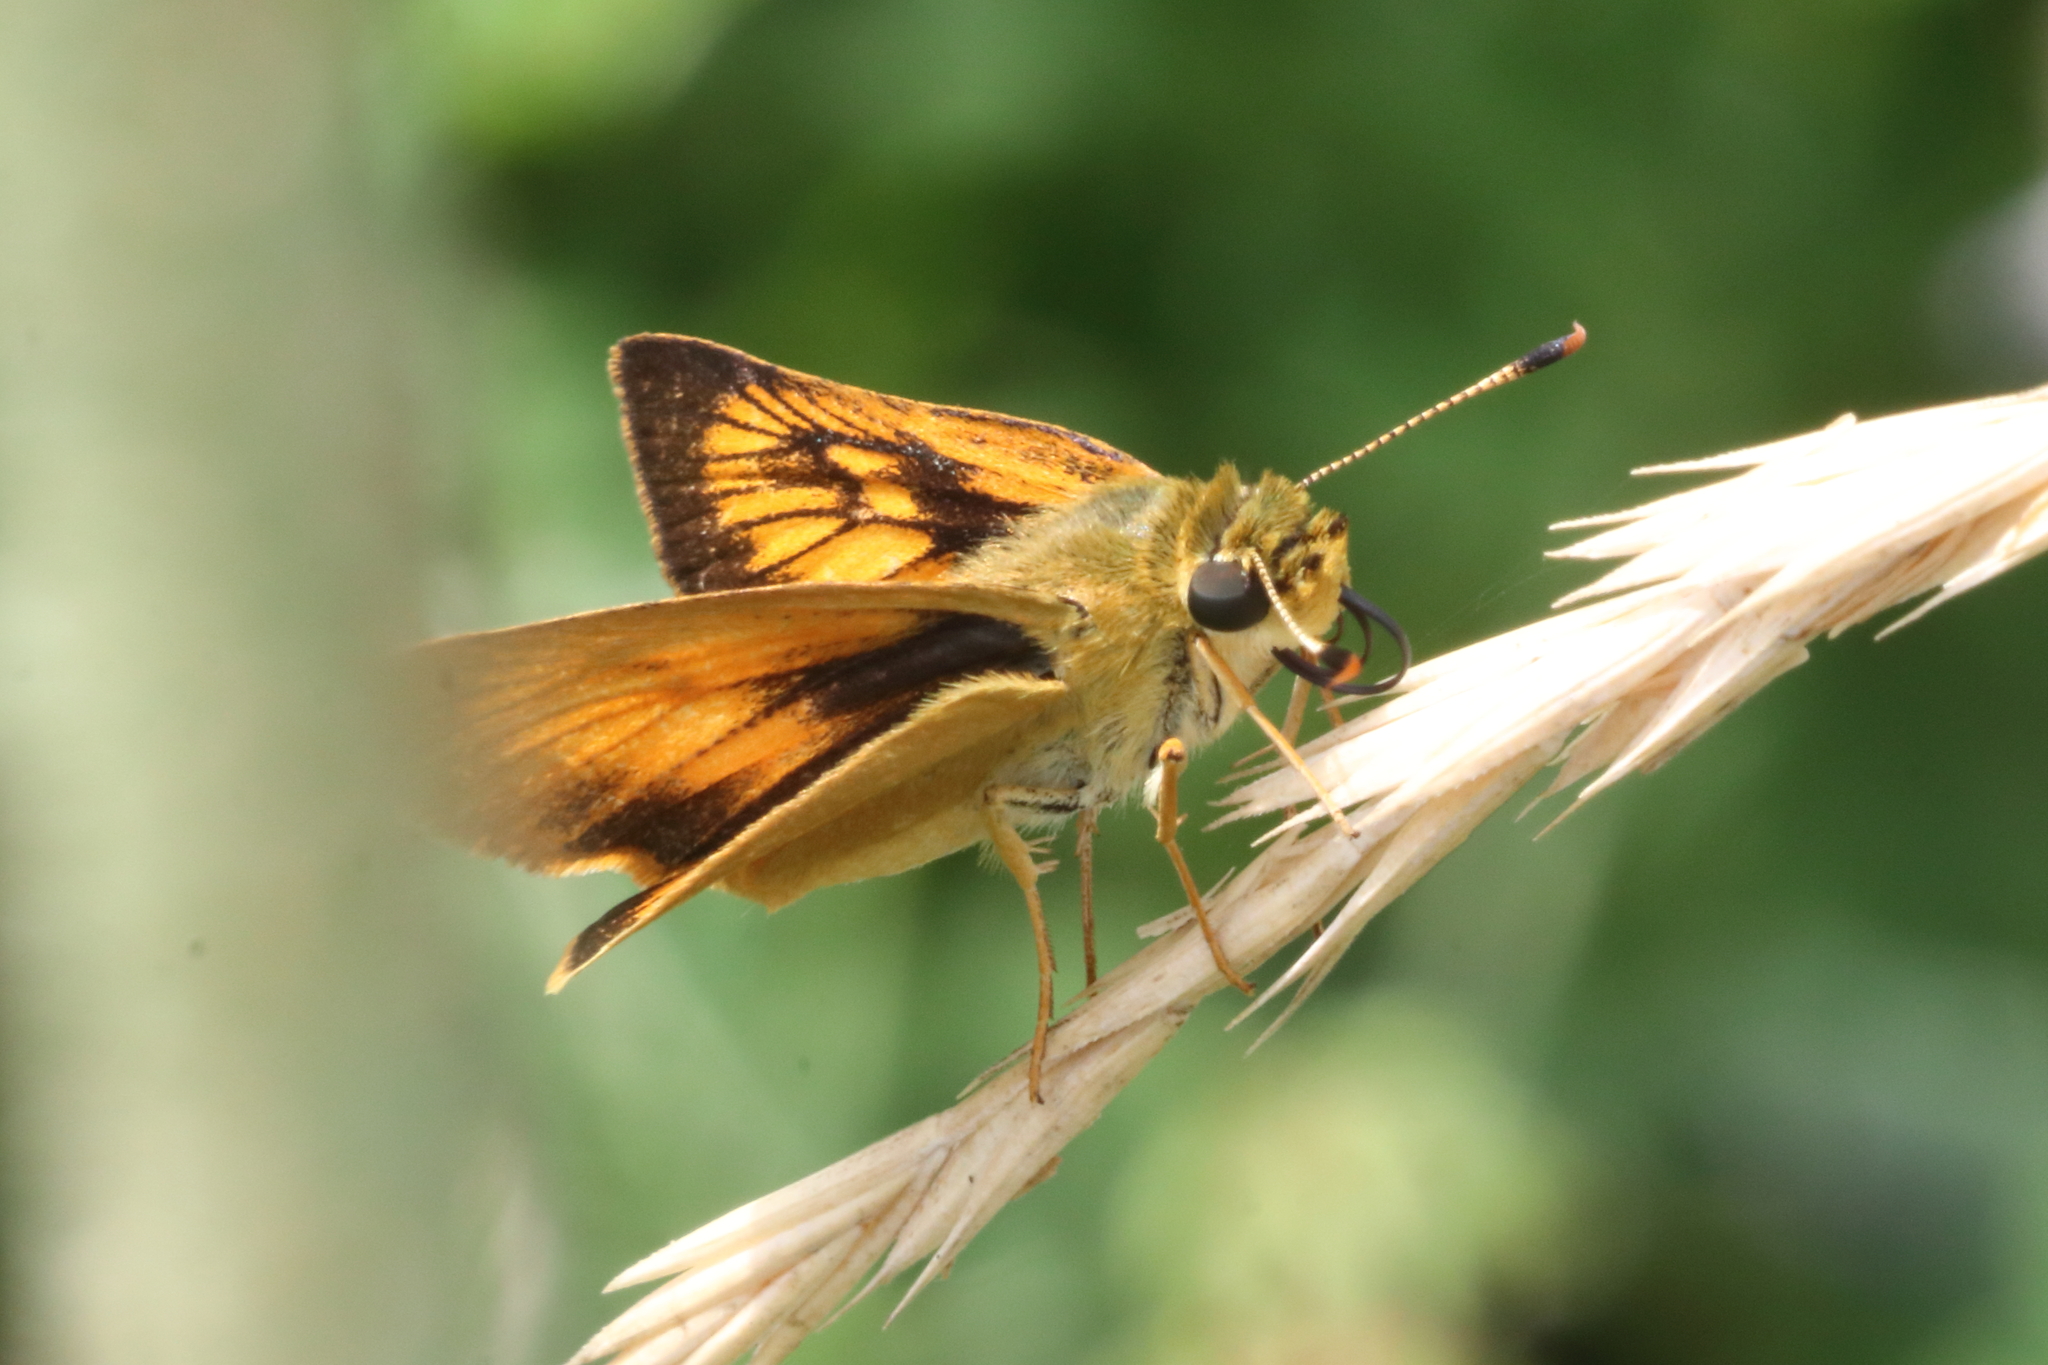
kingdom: Animalia
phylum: Arthropoda
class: Insecta
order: Lepidoptera
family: Hesperiidae
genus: Atrytone
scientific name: Atrytone delaware
